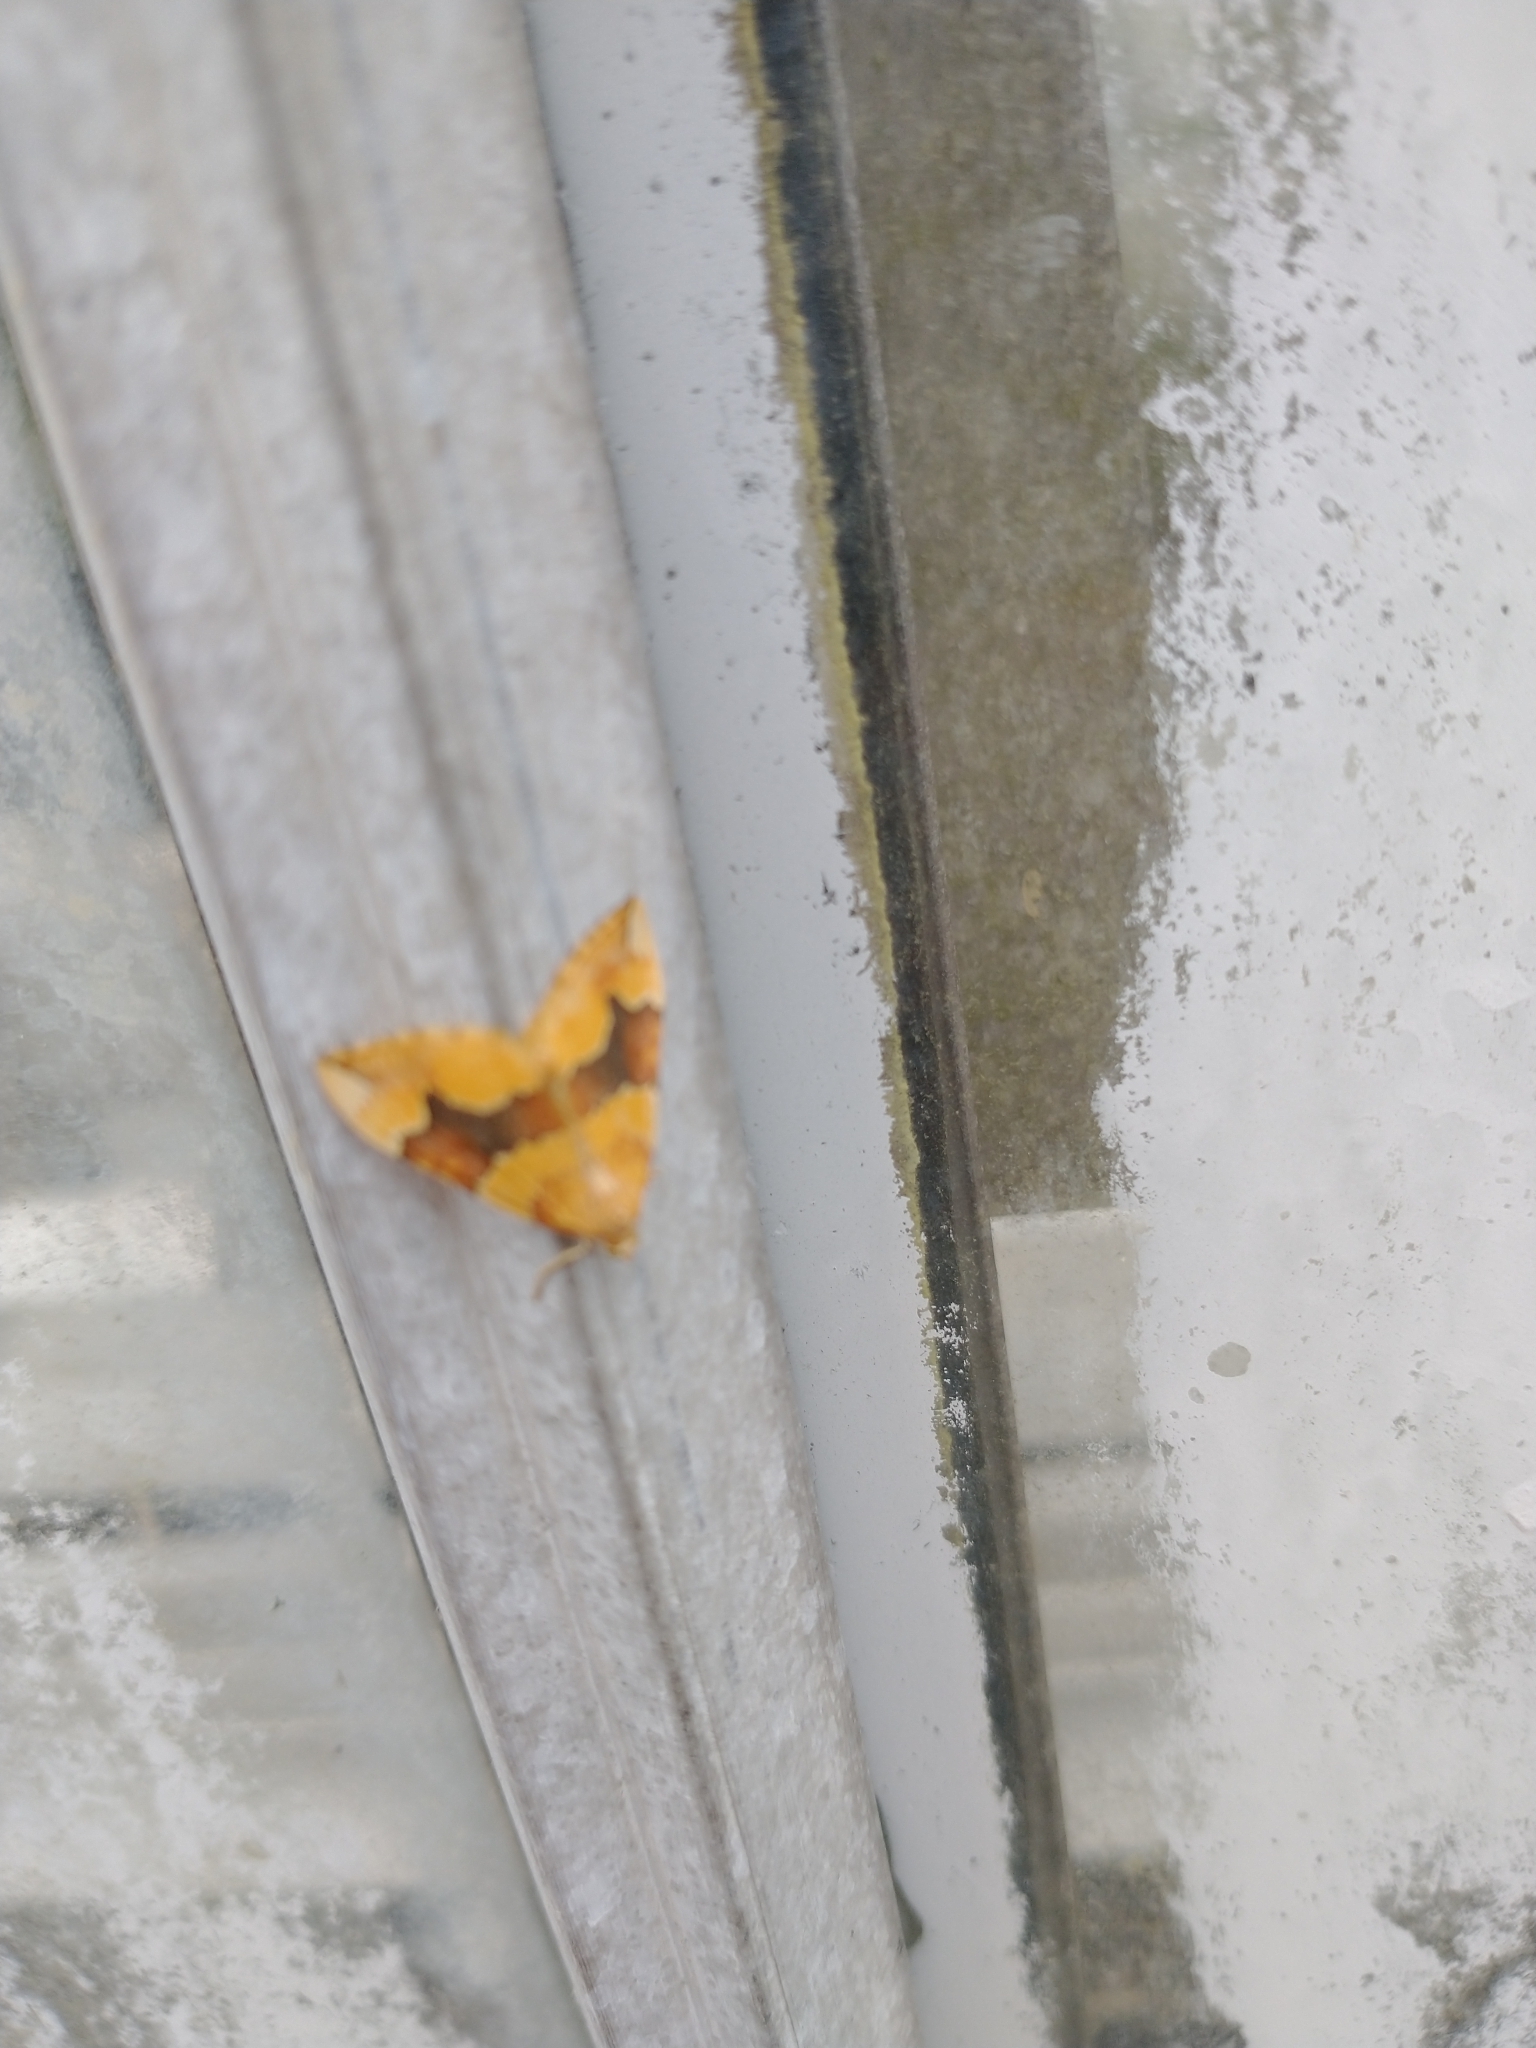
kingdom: Animalia
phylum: Arthropoda
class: Insecta
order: Lepidoptera
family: Geometridae
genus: Cidaria
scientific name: Cidaria fulvata
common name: Barred yellow
